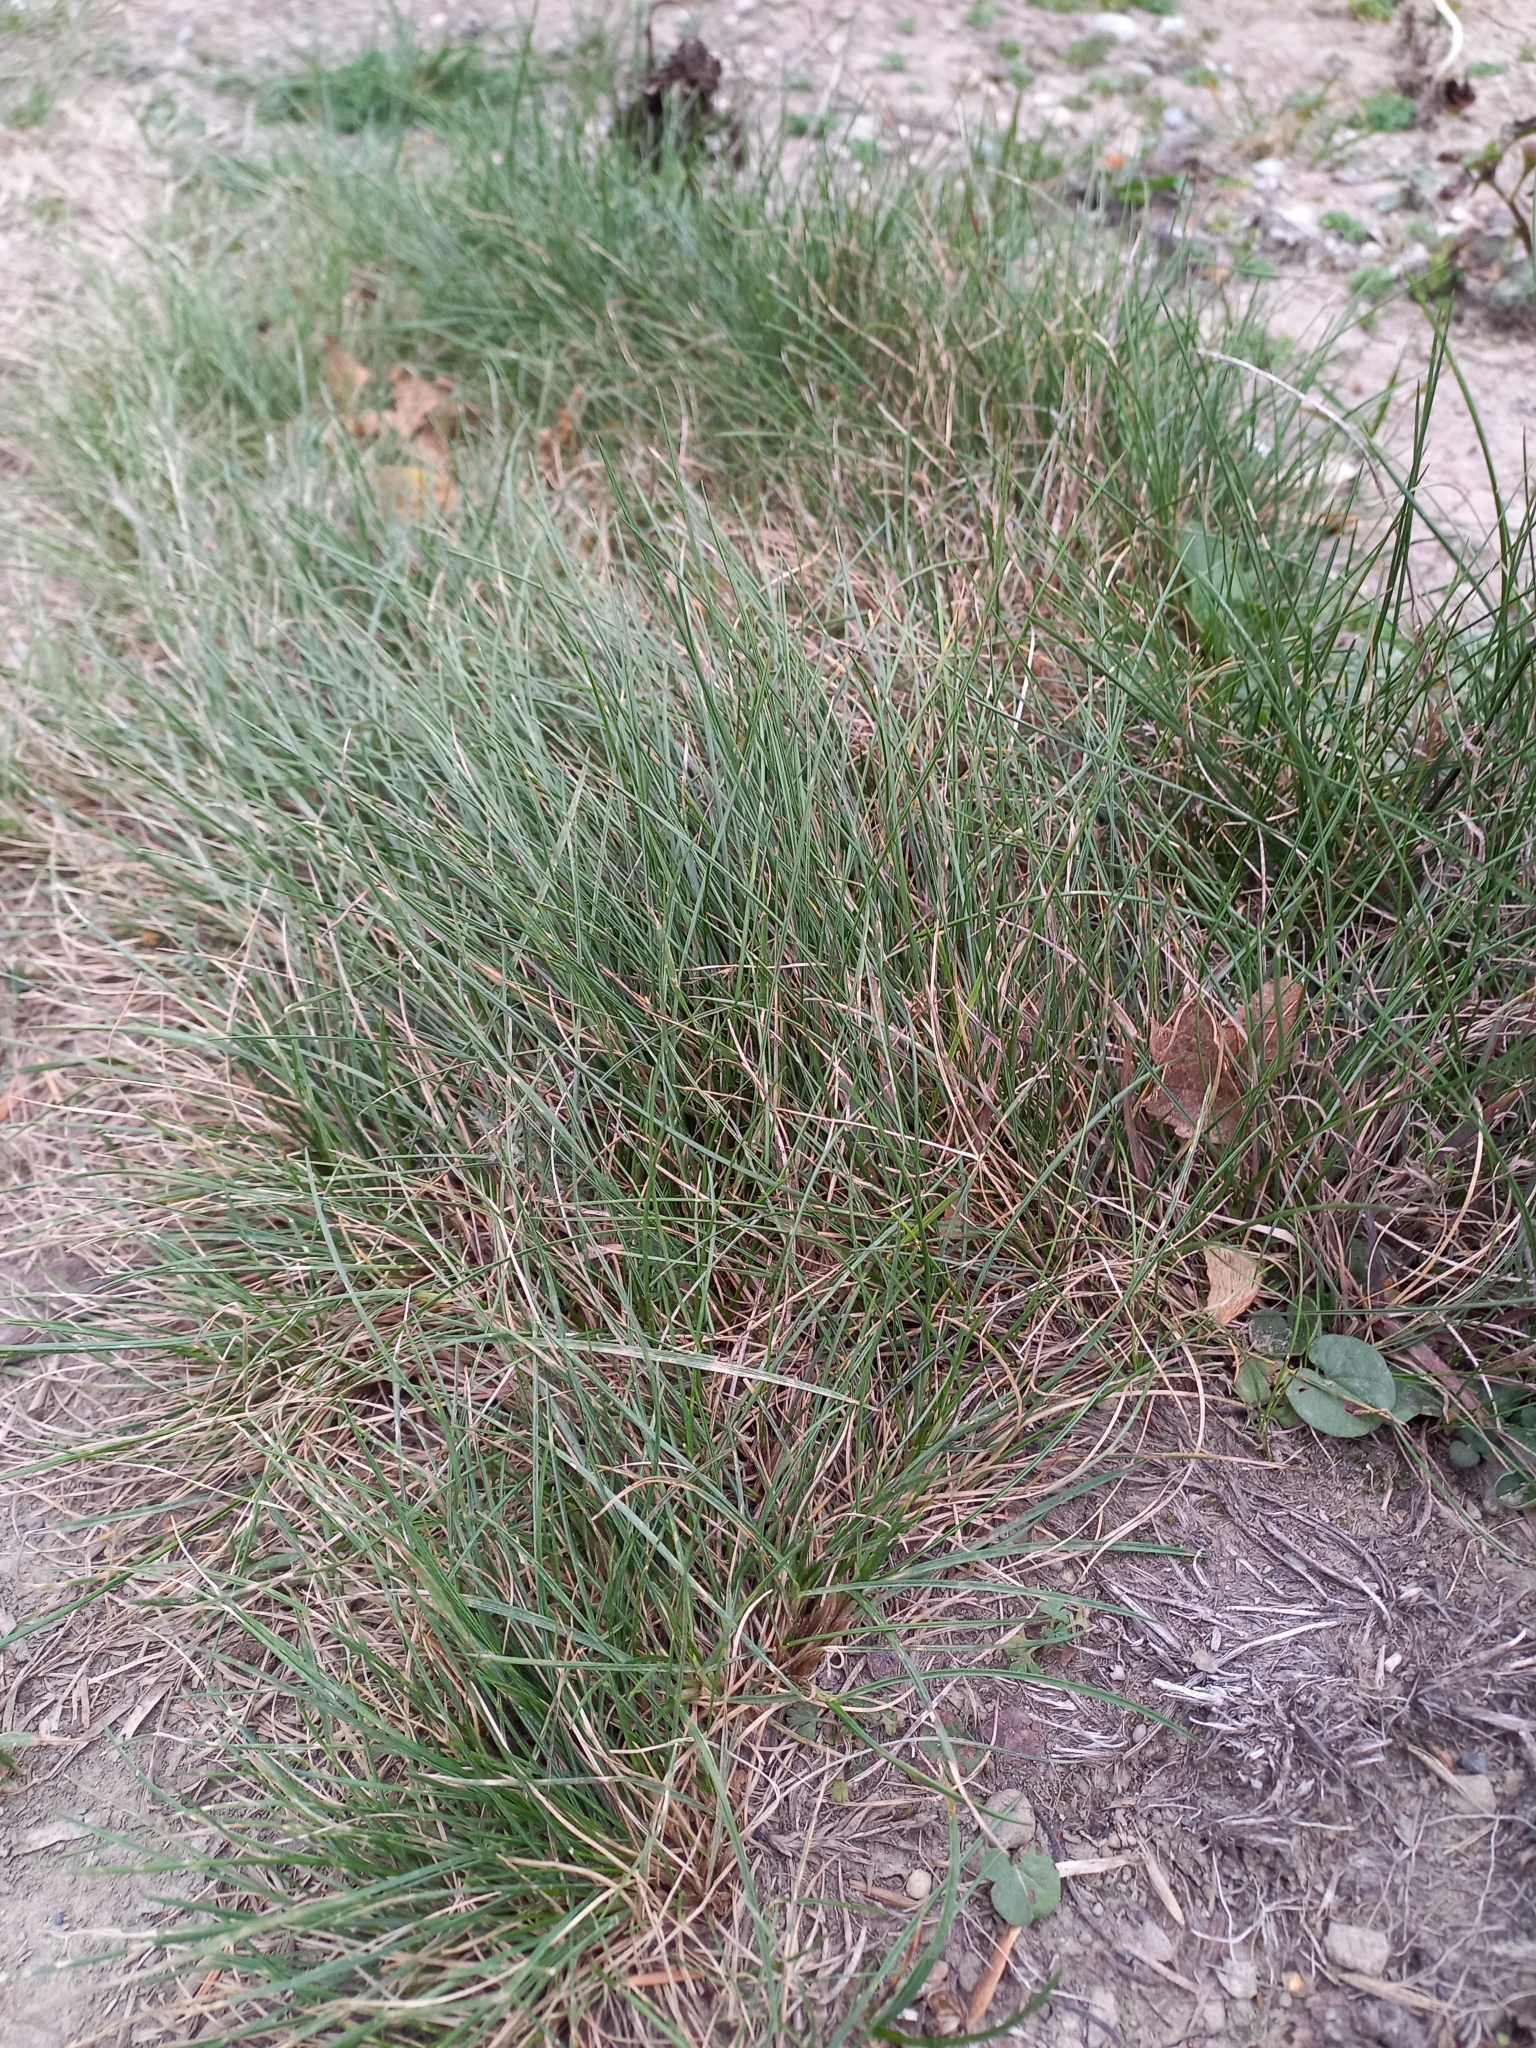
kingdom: Plantae
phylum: Tracheophyta
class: Liliopsida
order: Poales
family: Poaceae
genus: Festuca
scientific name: Festuca rubra
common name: Red fescue
